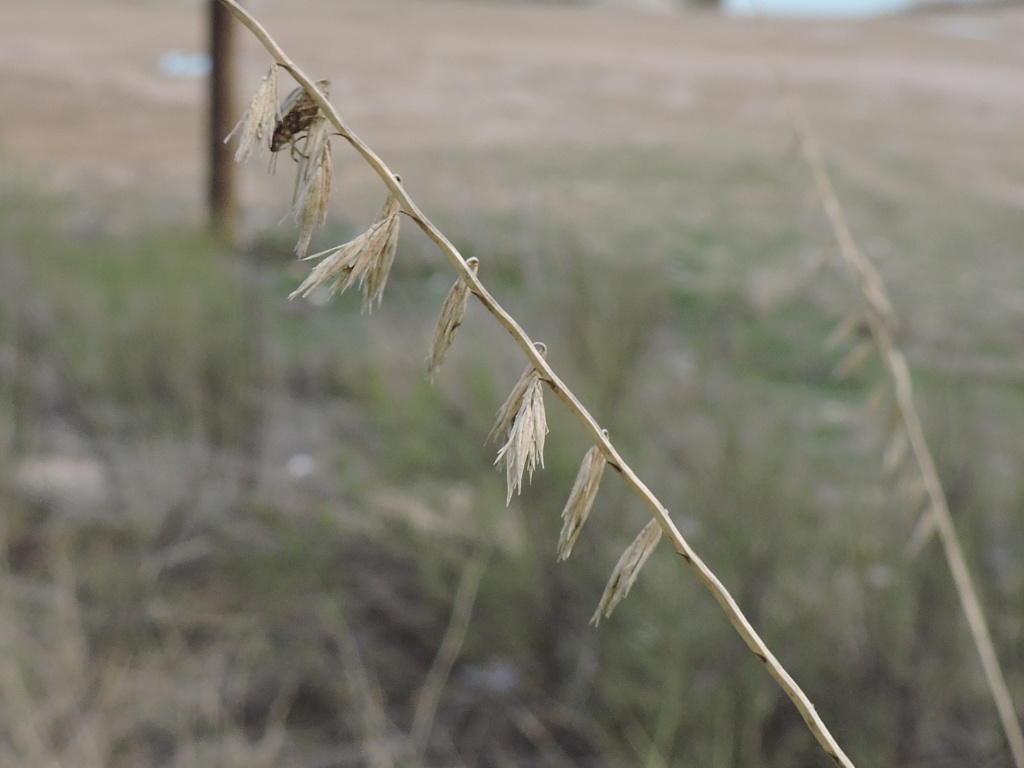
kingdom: Plantae
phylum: Tracheophyta
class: Liliopsida
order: Poales
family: Poaceae
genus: Bouteloua
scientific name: Bouteloua curtipendula
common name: Side-oats grama
